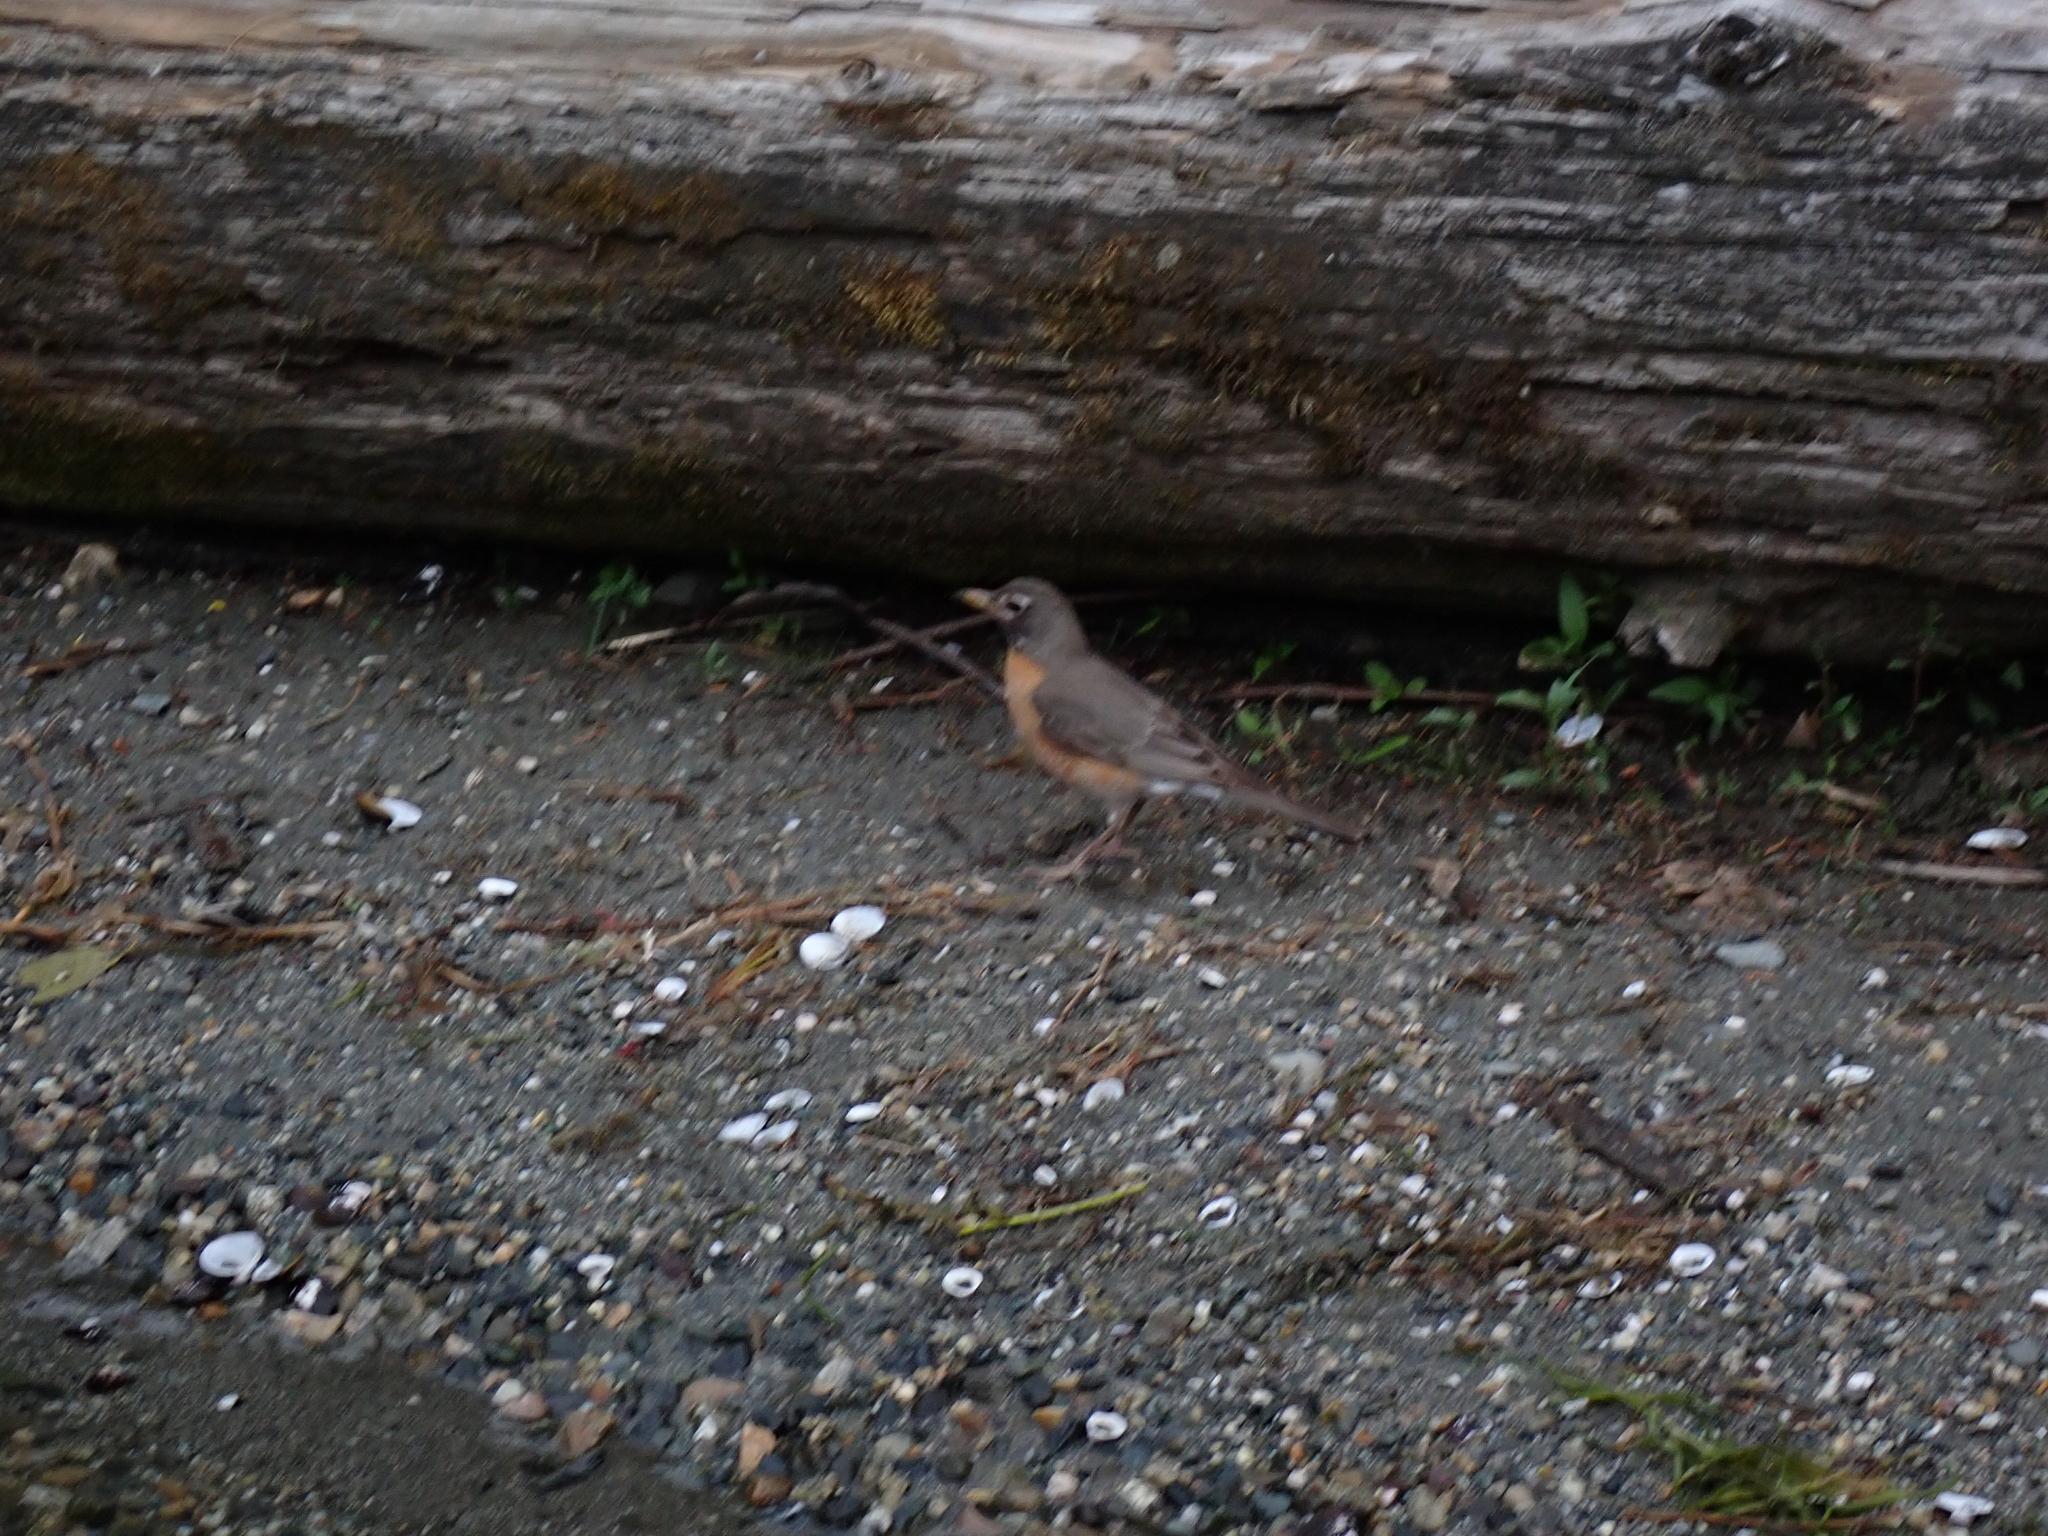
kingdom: Animalia
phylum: Chordata
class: Aves
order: Passeriformes
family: Turdidae
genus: Turdus
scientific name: Turdus migratorius
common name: American robin
